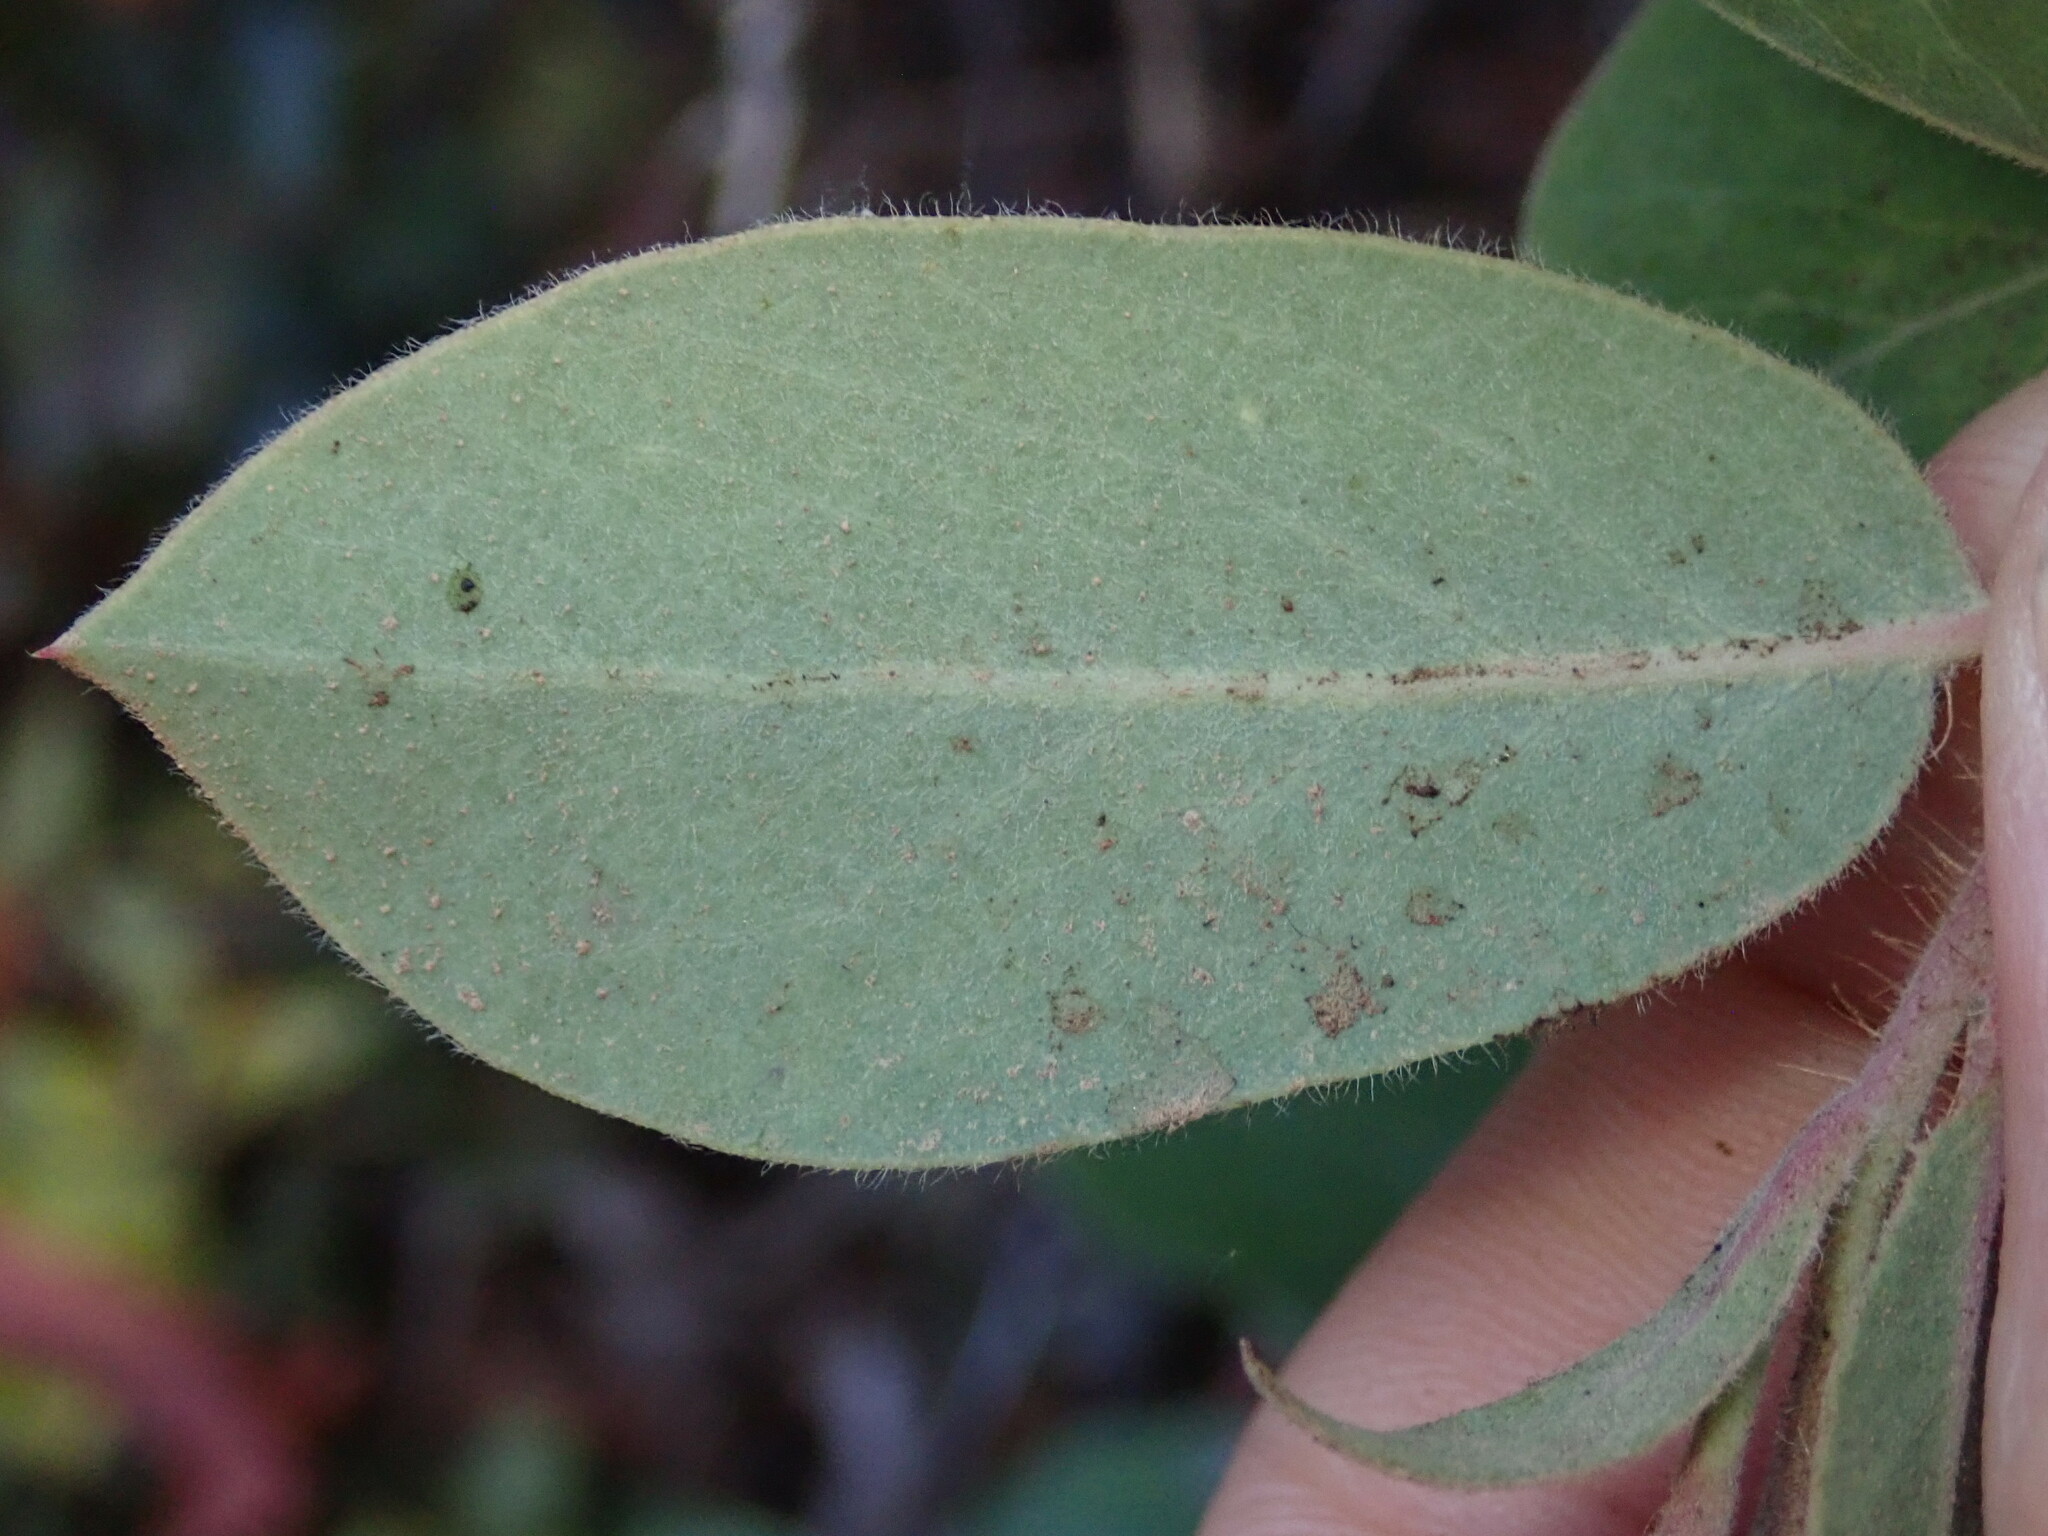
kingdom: Plantae
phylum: Tracheophyta
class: Magnoliopsida
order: Ericales
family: Ericaceae
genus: Arctostaphylos
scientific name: Arctostaphylos crustacea
